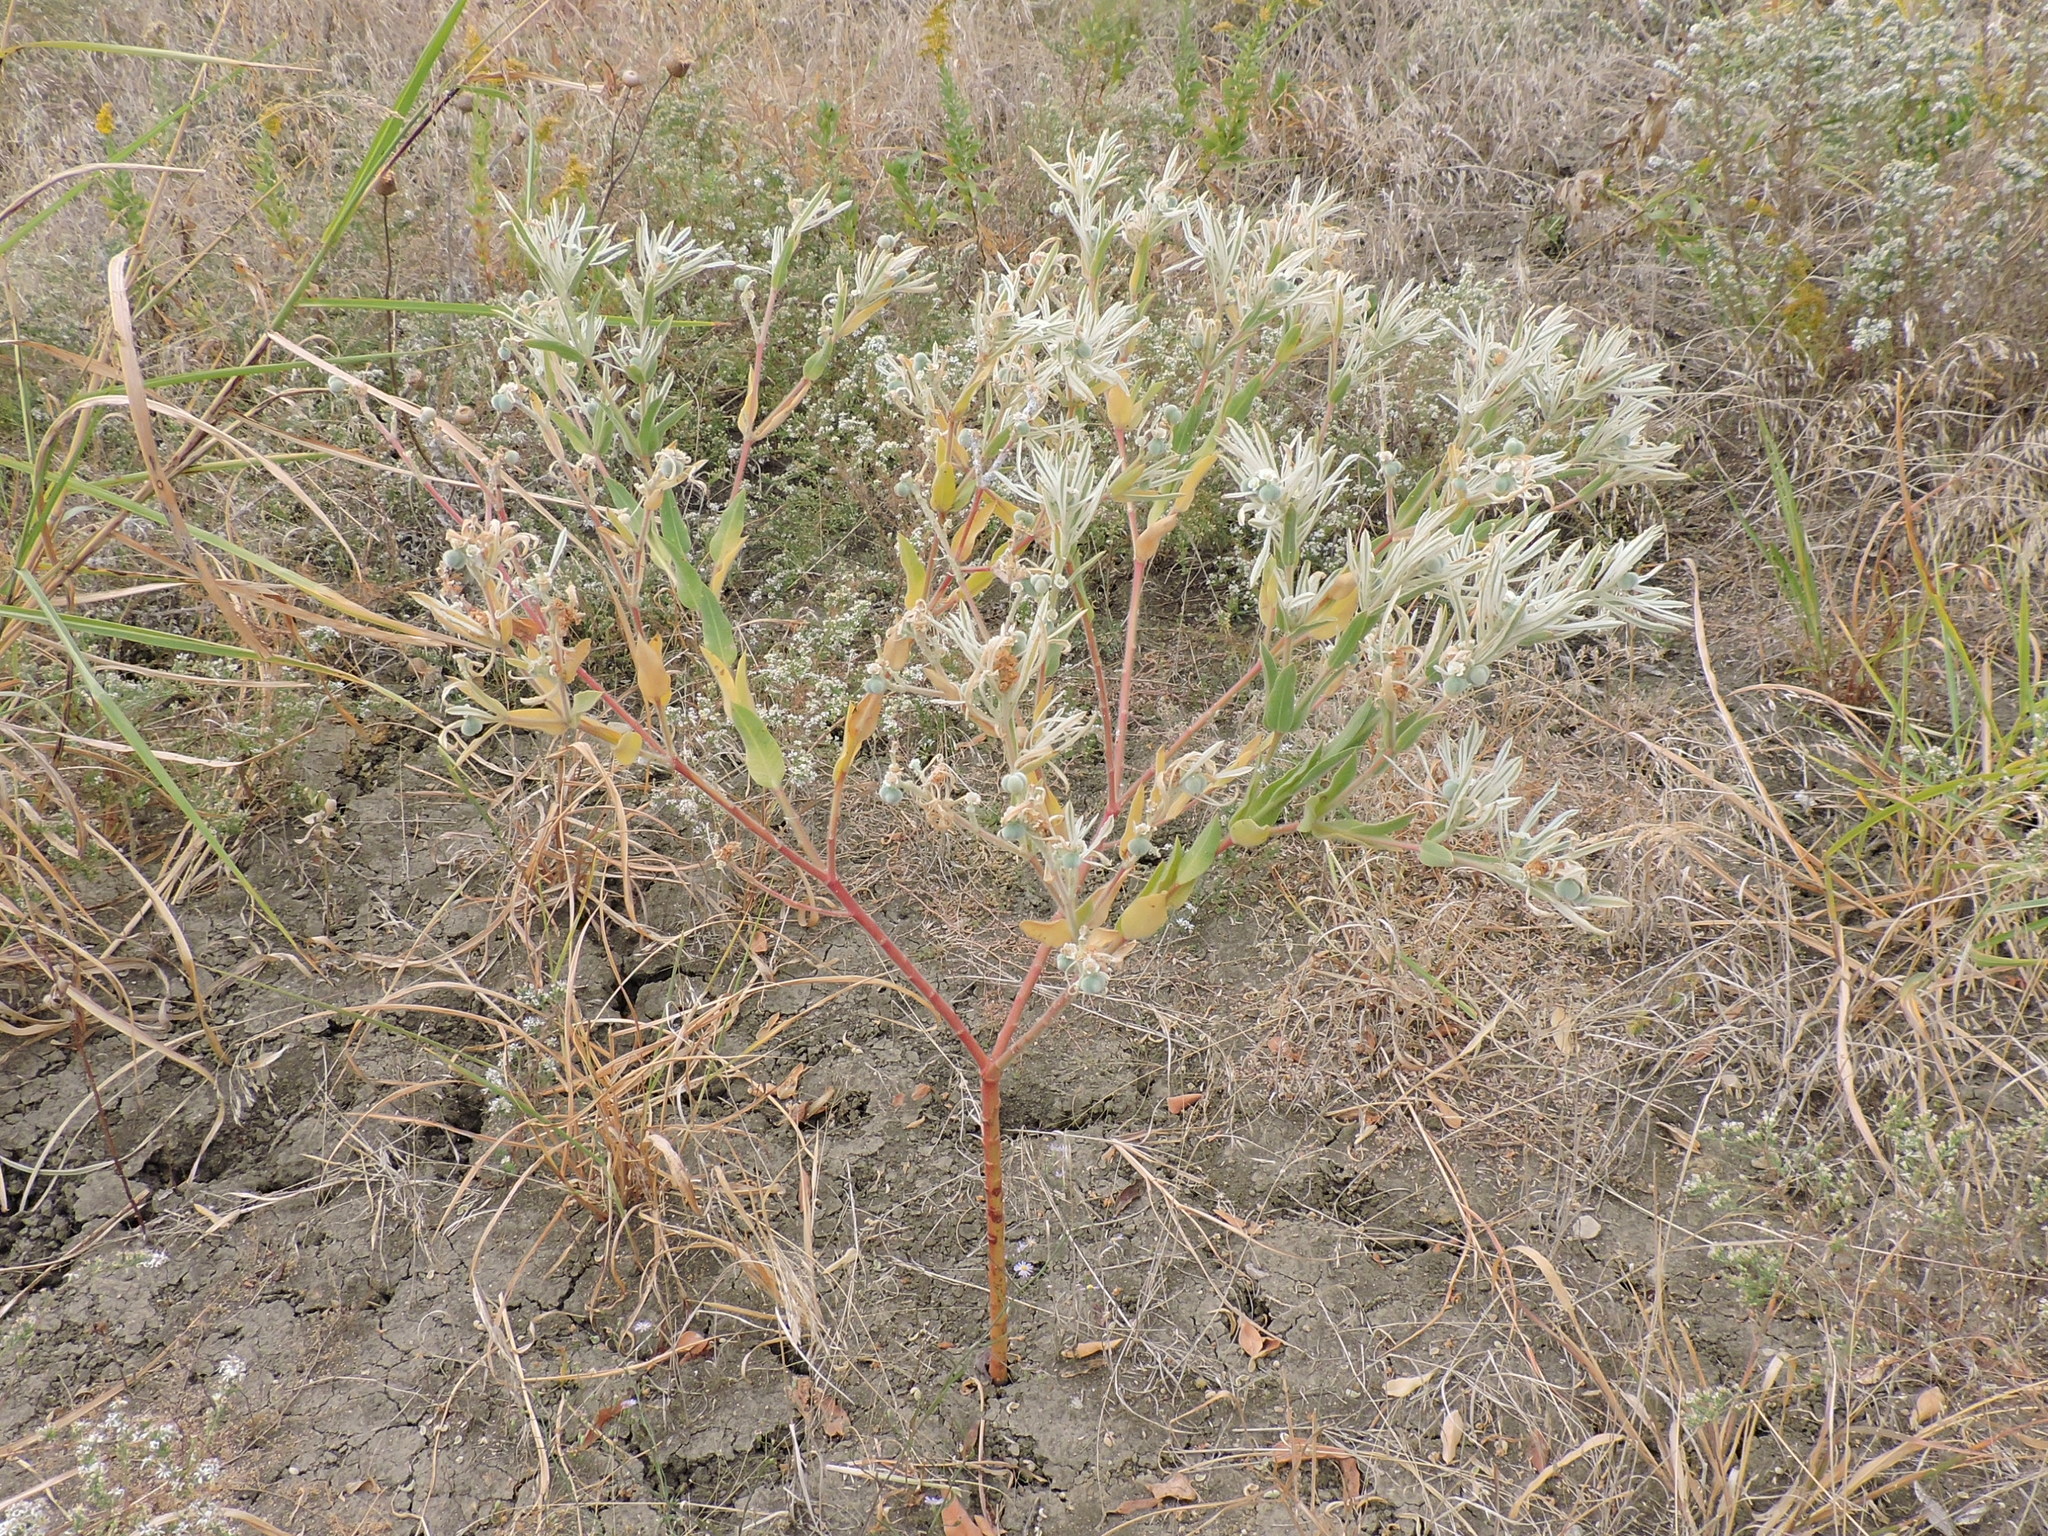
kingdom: Plantae
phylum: Tracheophyta
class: Magnoliopsida
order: Malpighiales
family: Euphorbiaceae
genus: Euphorbia
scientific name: Euphorbia bicolor
